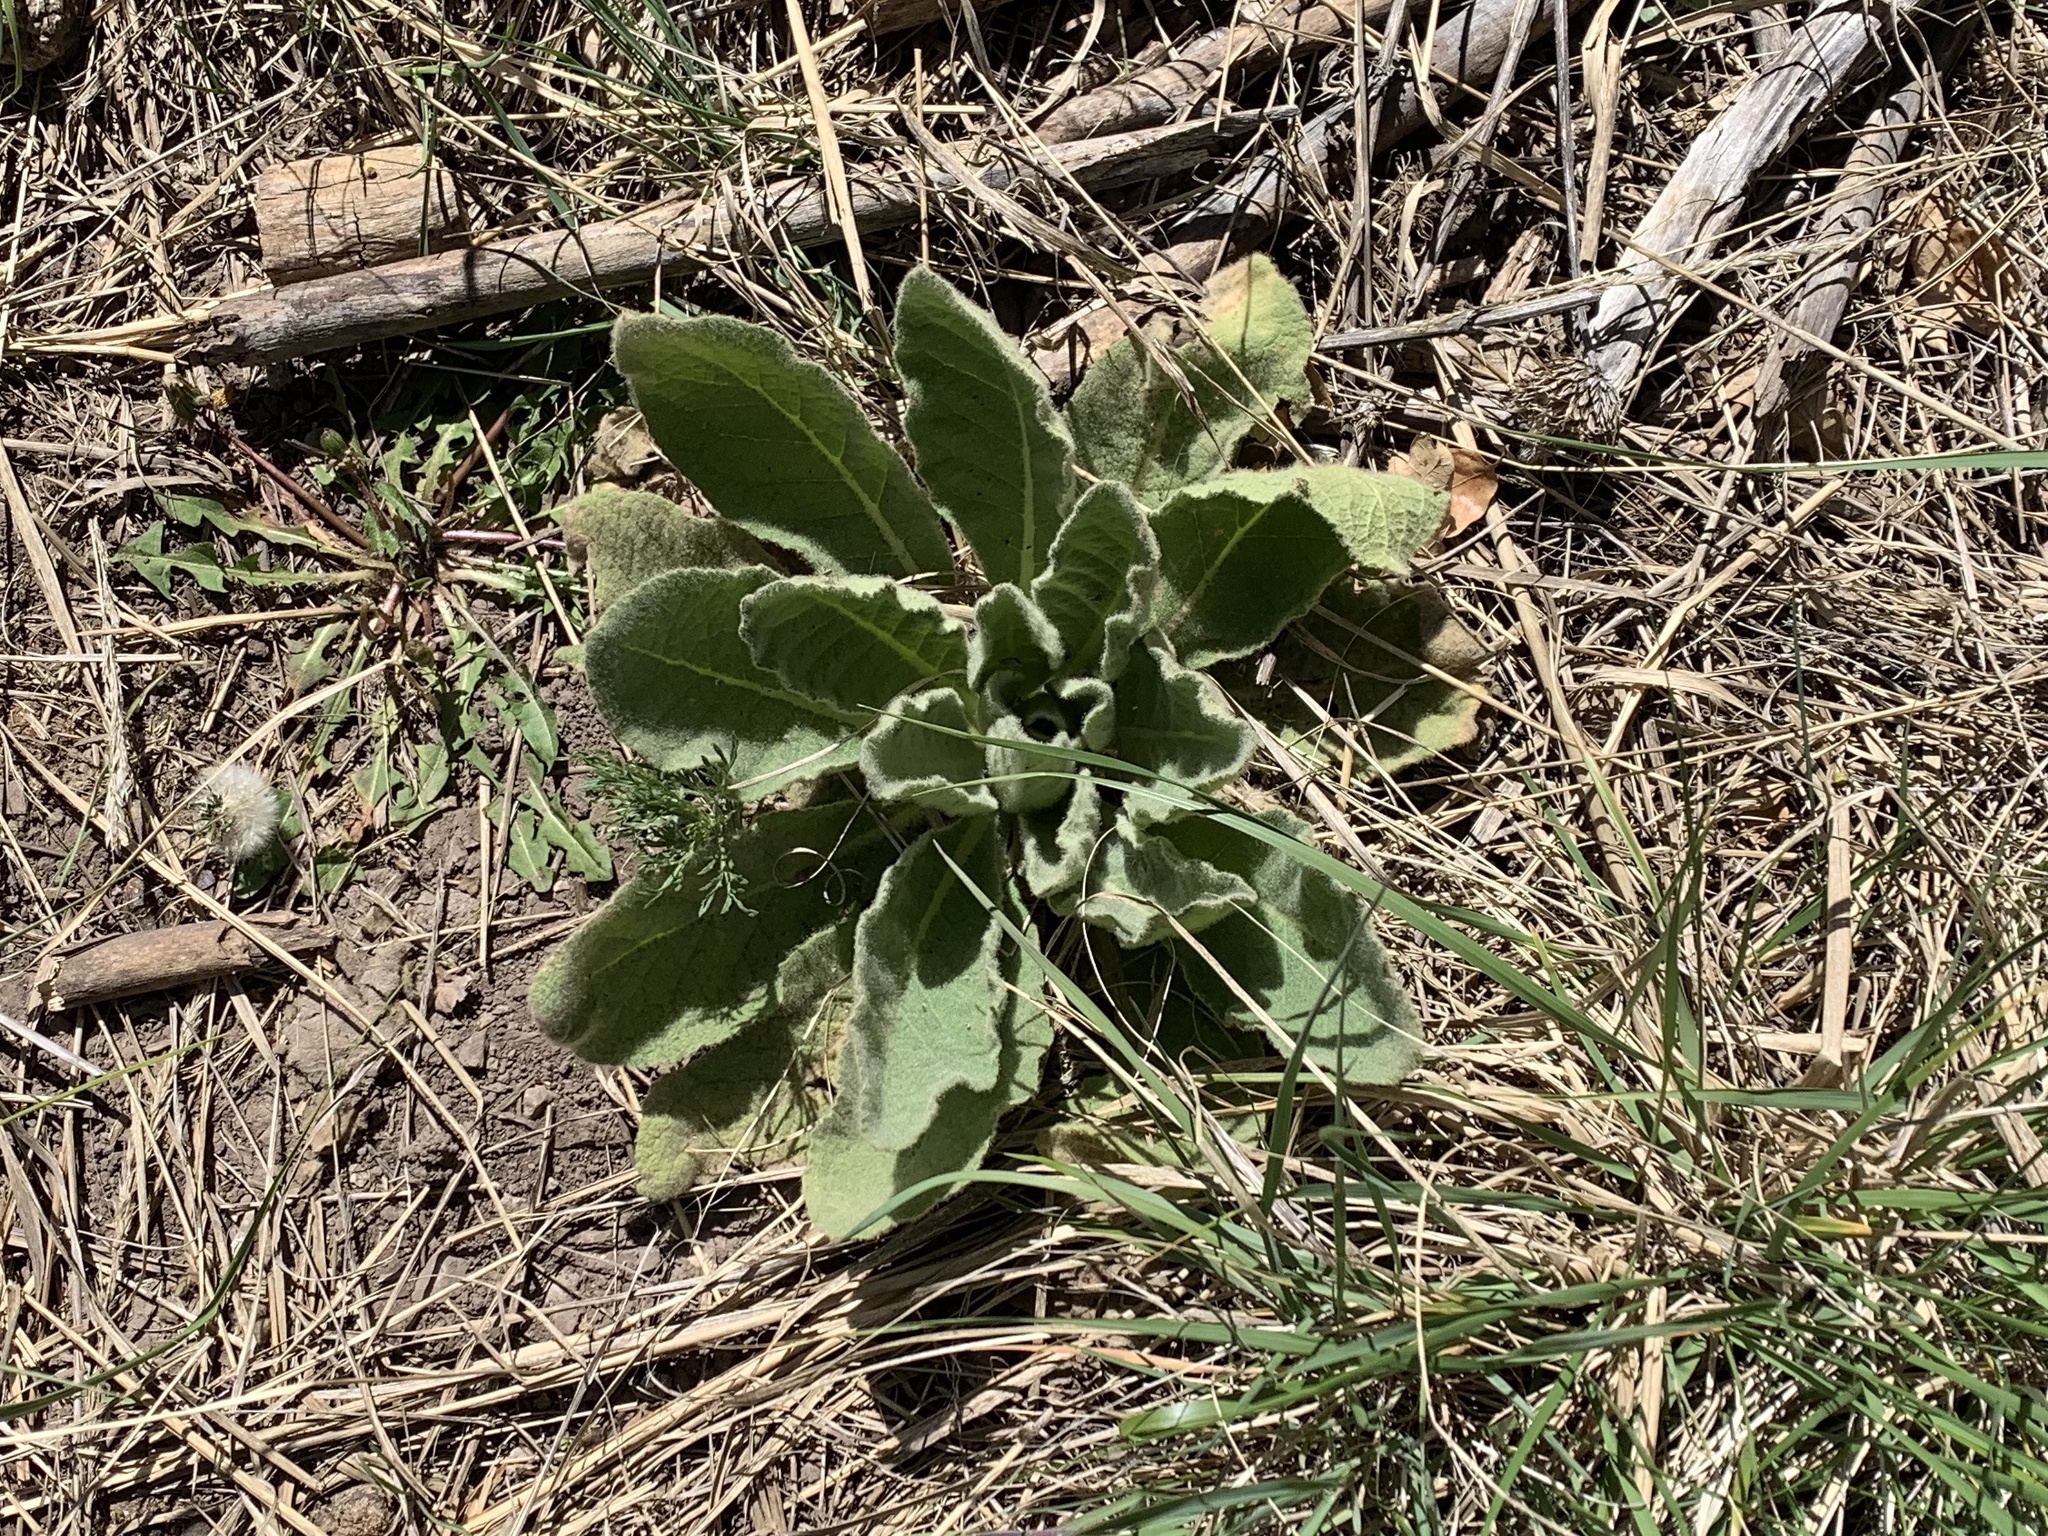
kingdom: Plantae
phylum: Tracheophyta
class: Magnoliopsida
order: Lamiales
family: Scrophulariaceae
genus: Verbascum
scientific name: Verbascum thapsus
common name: Common mullein
